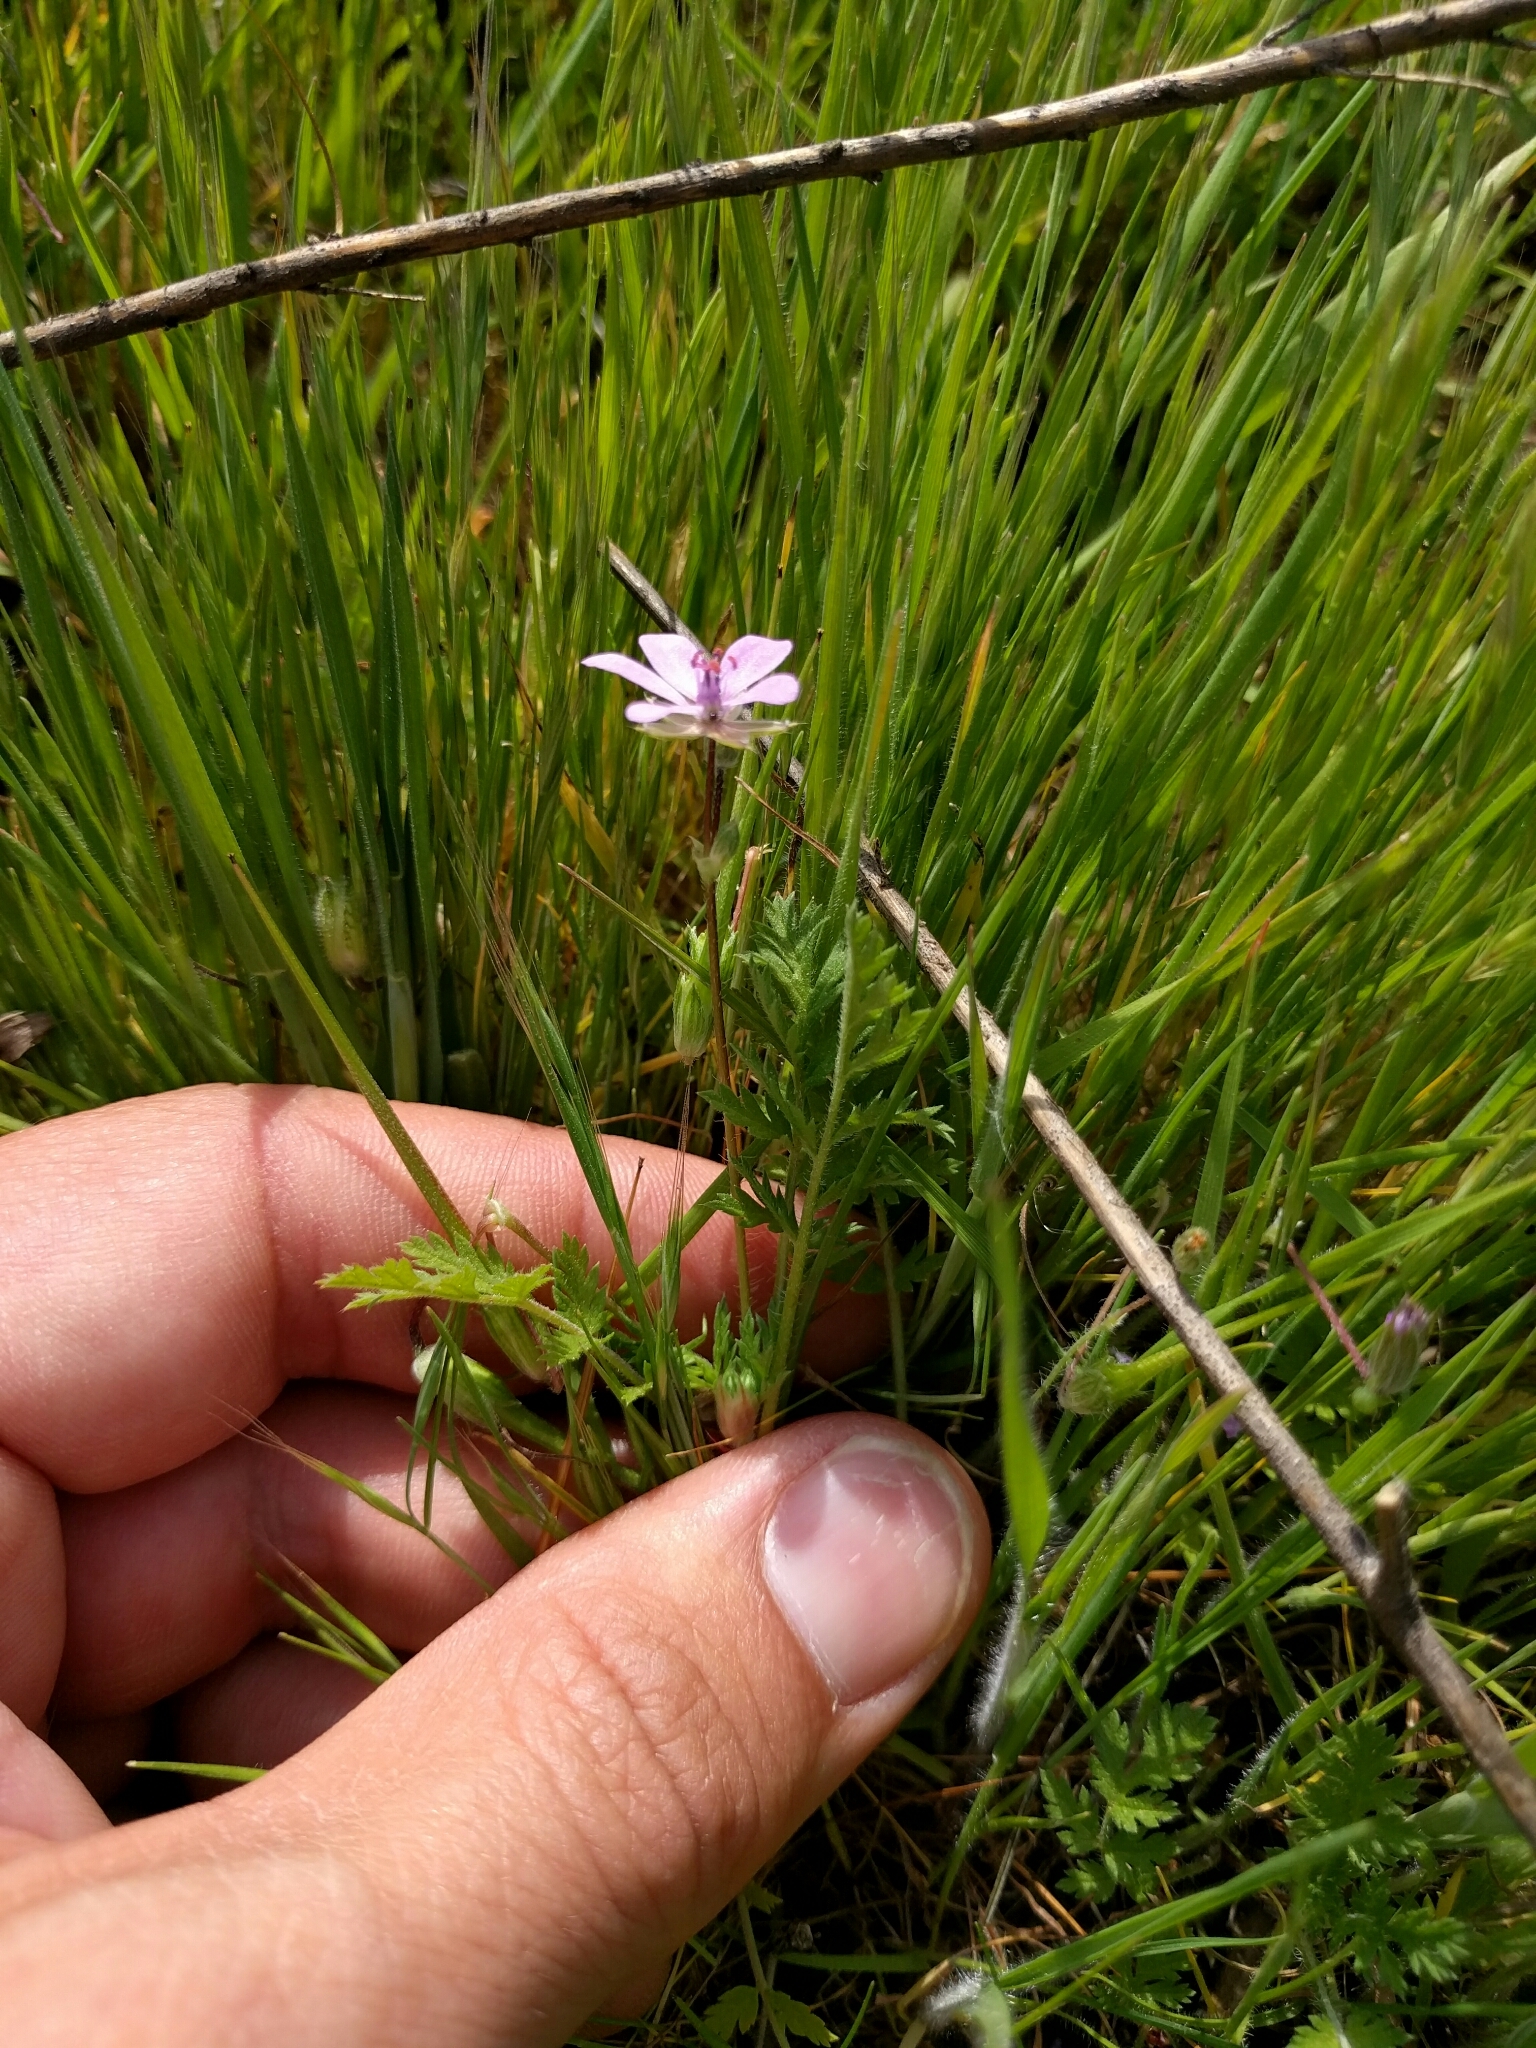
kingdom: Plantae
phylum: Tracheophyta
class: Magnoliopsida
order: Geraniales
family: Geraniaceae
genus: Erodium
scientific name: Erodium cicutarium
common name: Common stork's-bill
